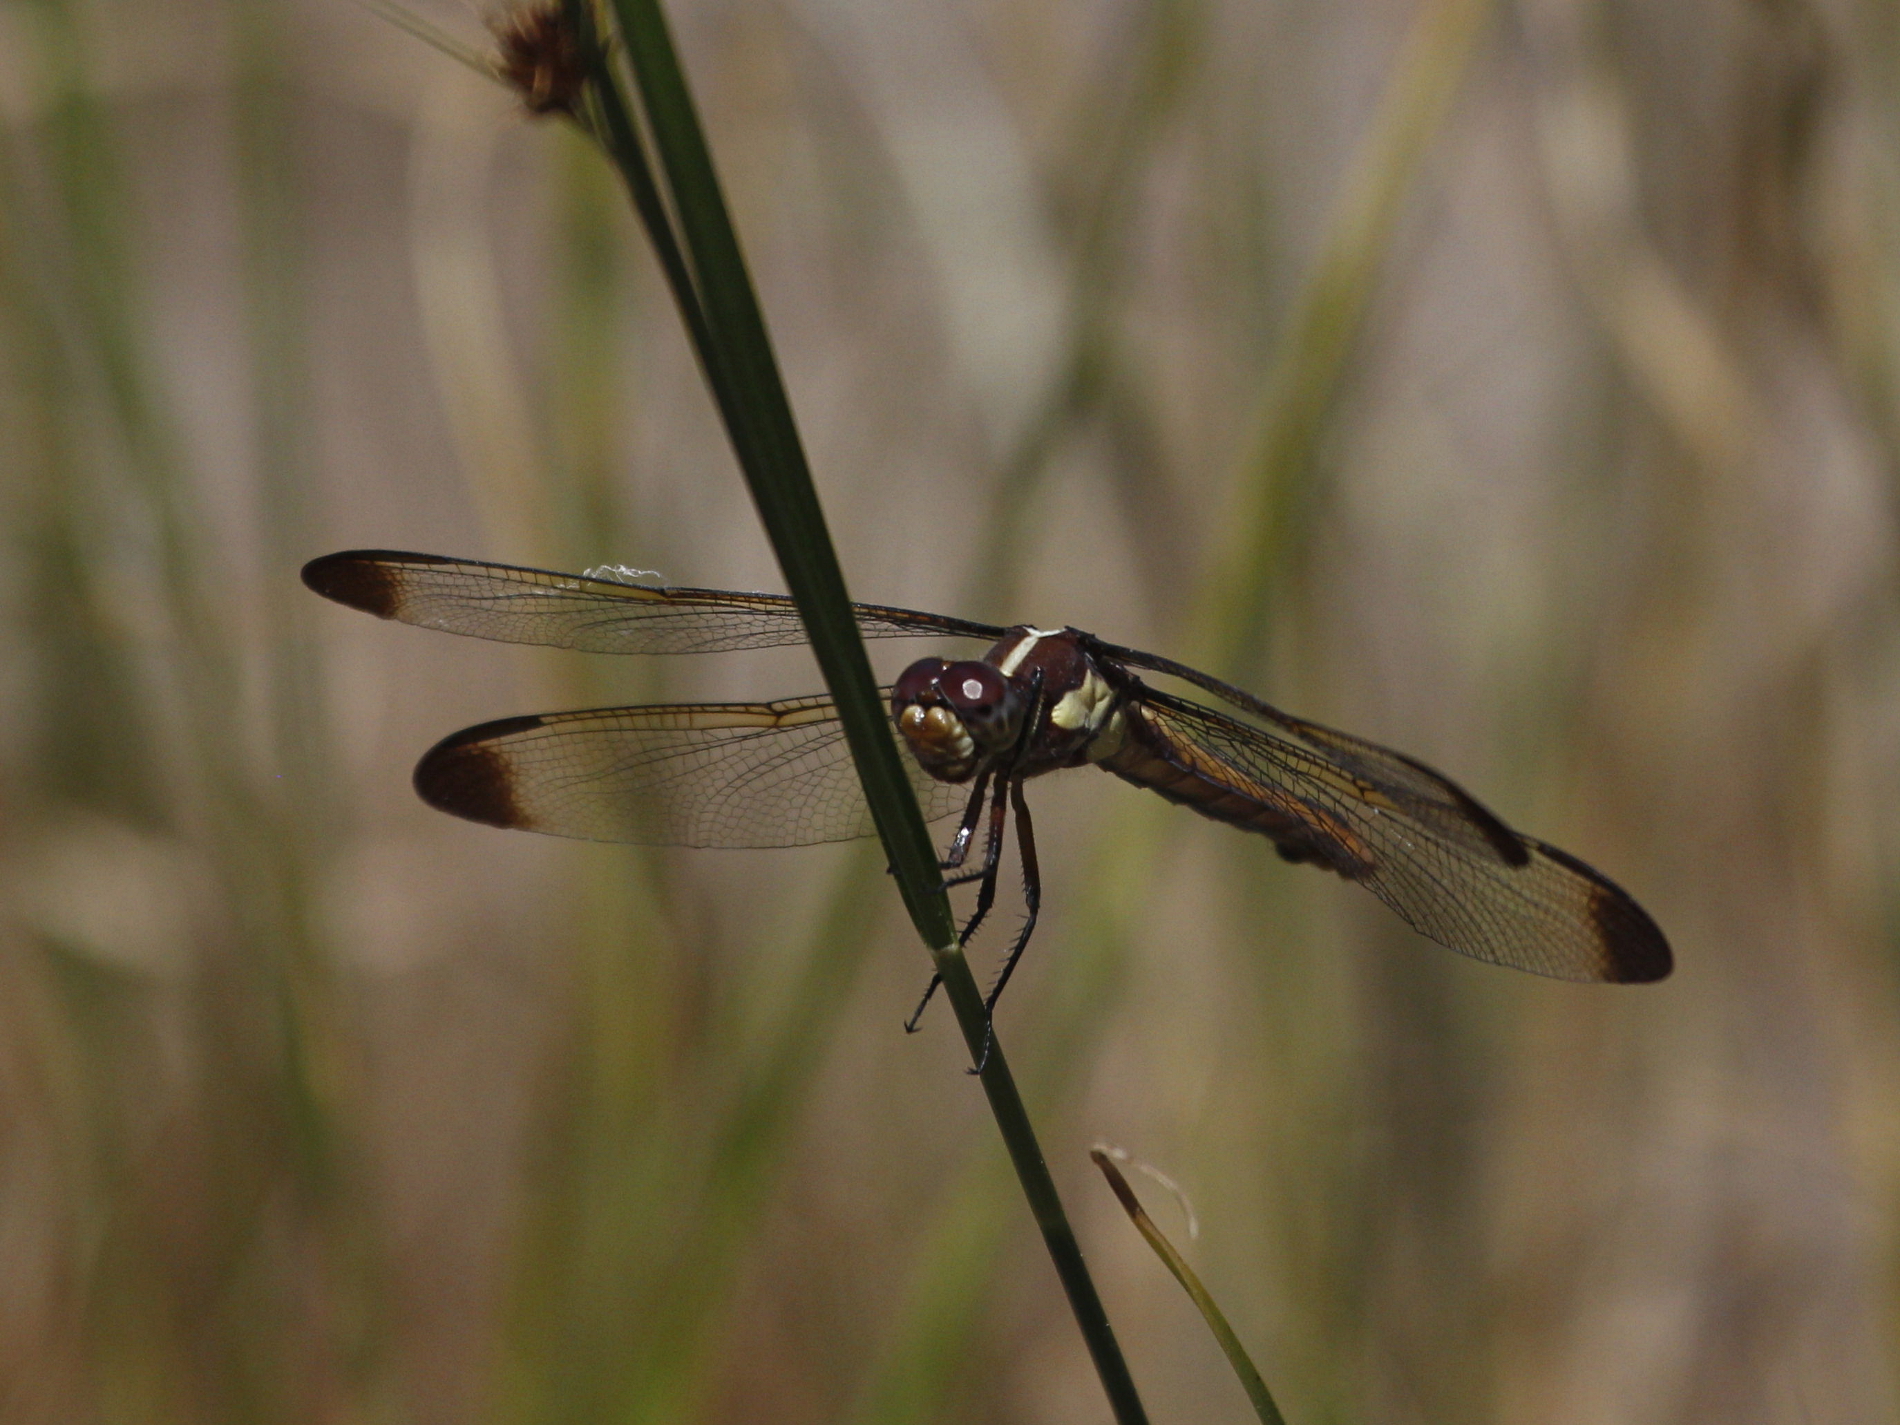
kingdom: Animalia
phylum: Arthropoda
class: Insecta
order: Odonata
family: Libellulidae
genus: Libellula
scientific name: Libellula flavida
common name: Yellow-sided skimmer
